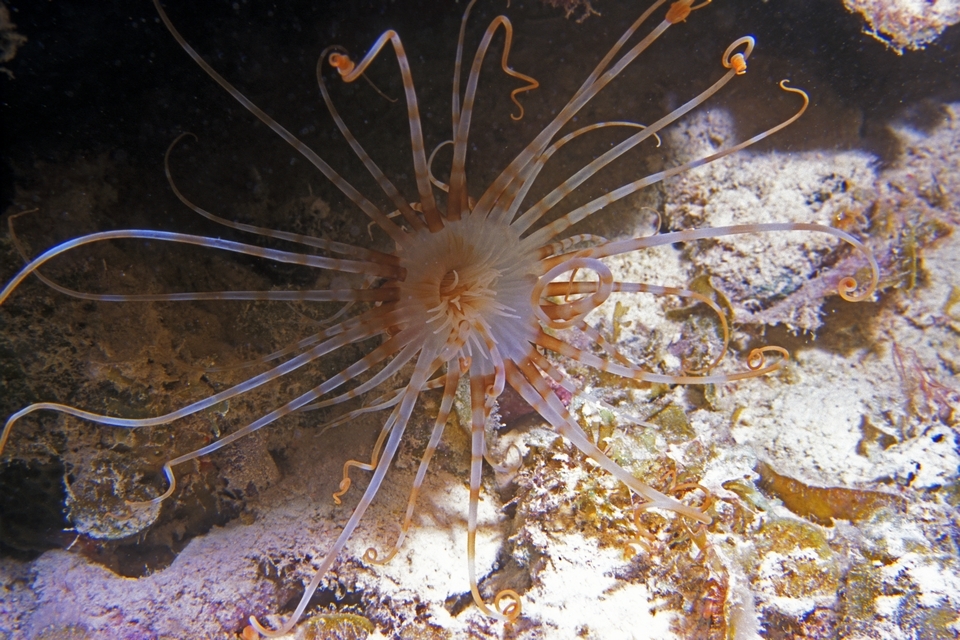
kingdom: Animalia
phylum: Cnidaria
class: Anthozoa
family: Arachnactidae
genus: Isarachnanthus
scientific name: Isarachnanthus nocturnus
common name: Banded tube-dwelling anemone
